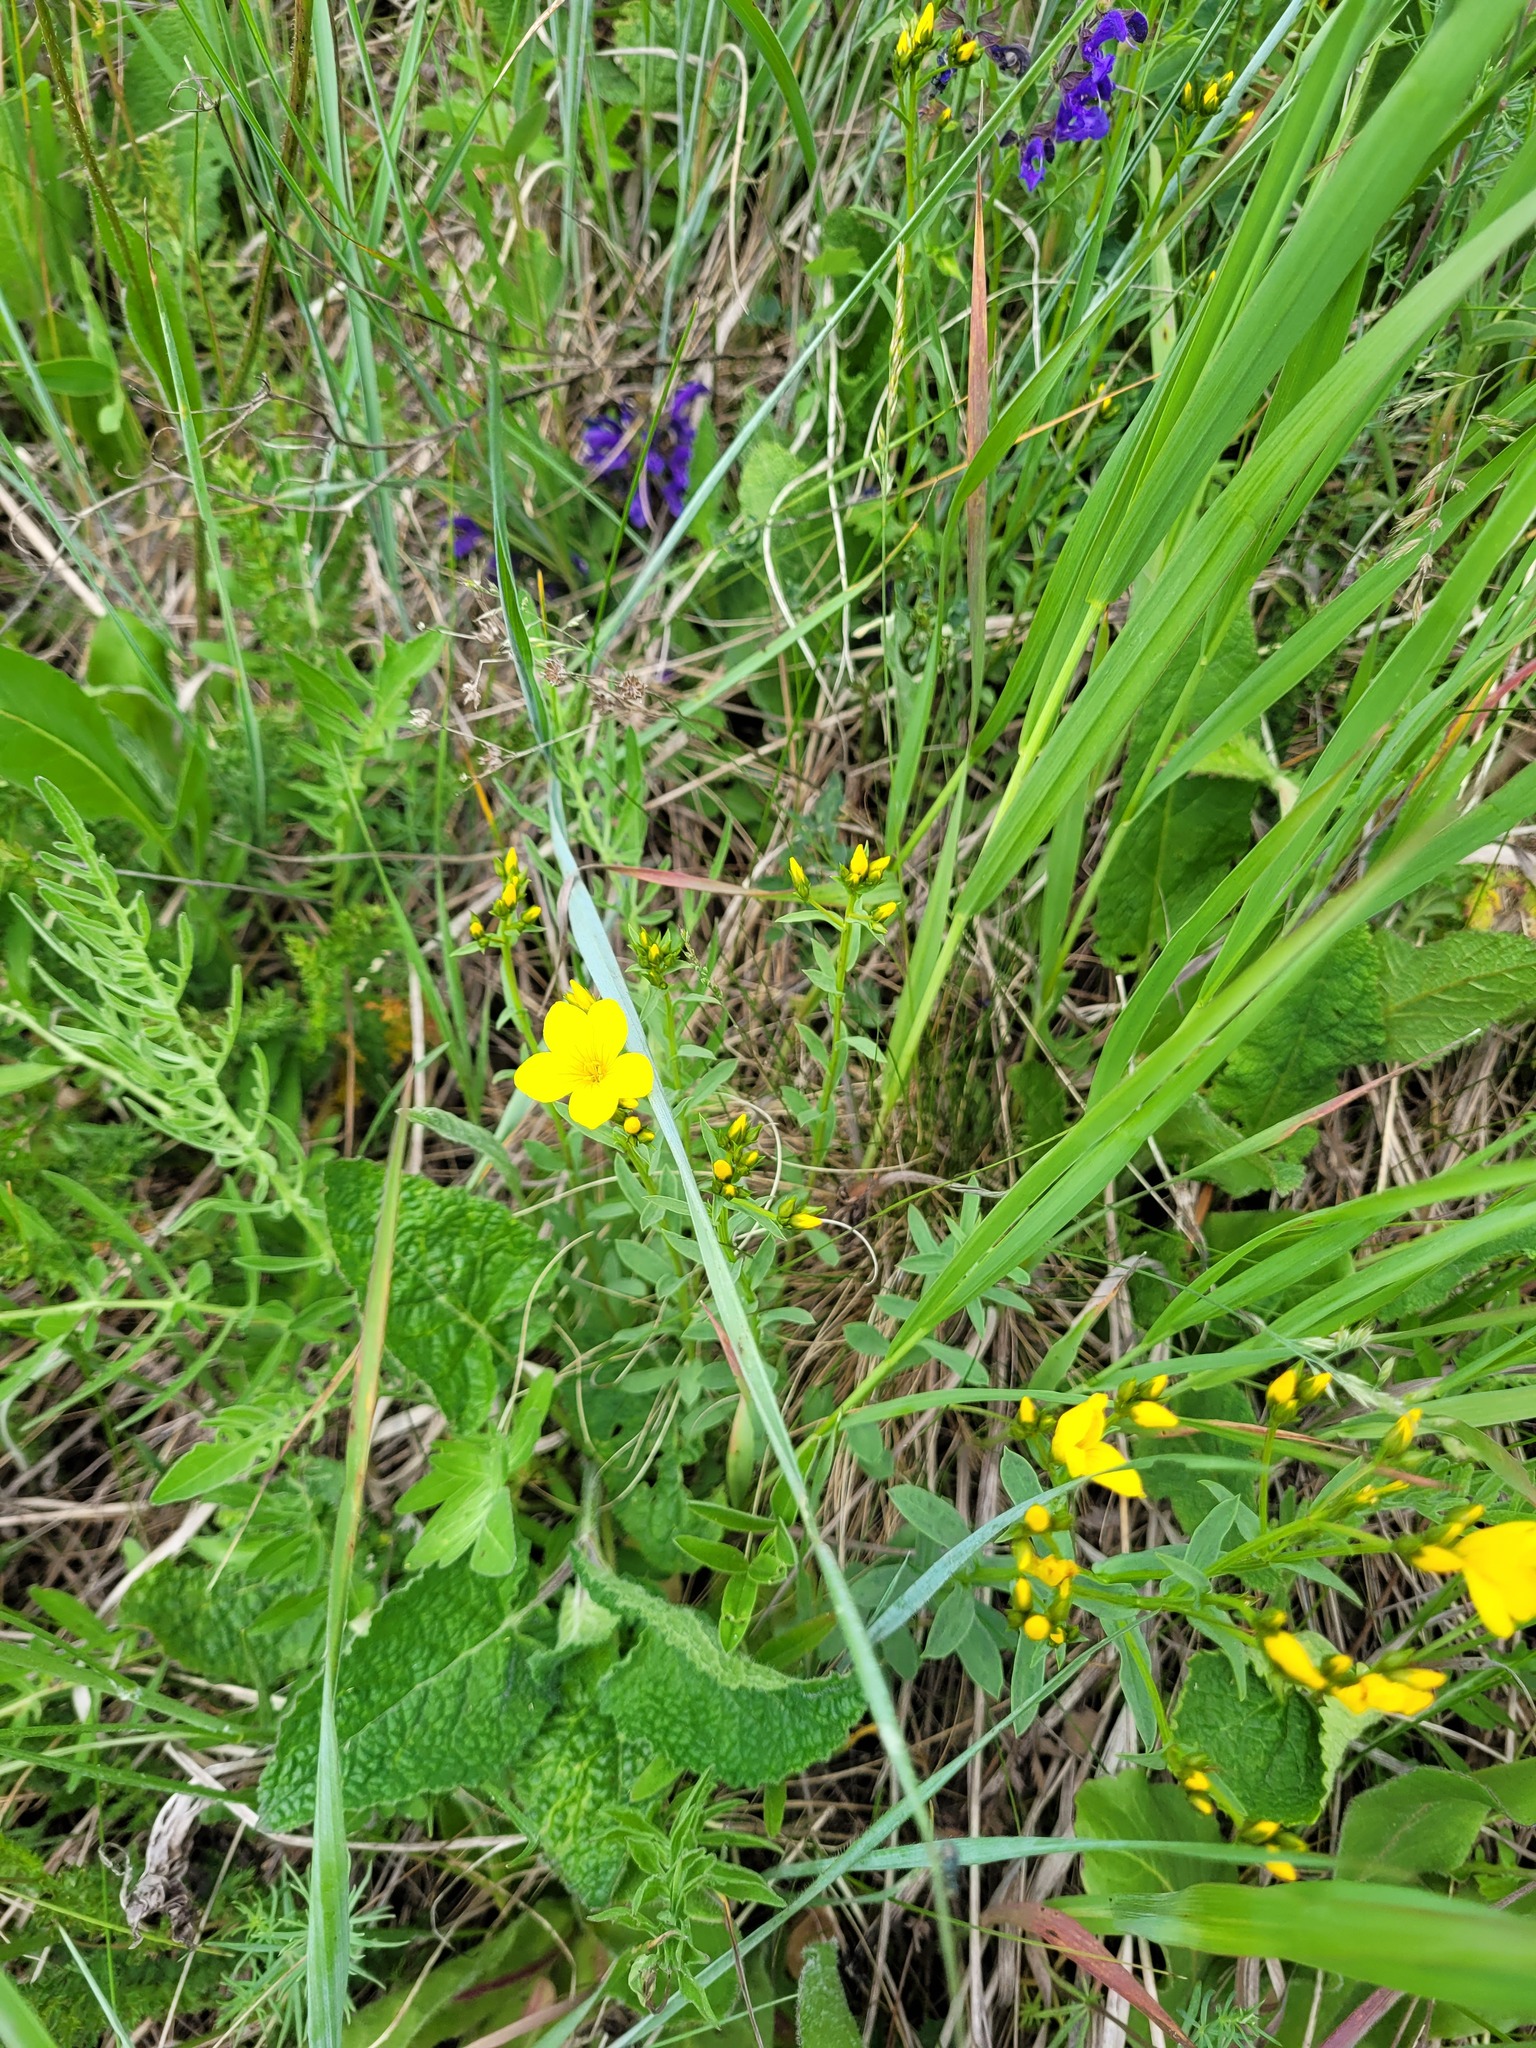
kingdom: Plantae
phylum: Tracheophyta
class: Magnoliopsida
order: Malpighiales
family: Linaceae
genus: Linum
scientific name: Linum flavum
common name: Yellow flax
